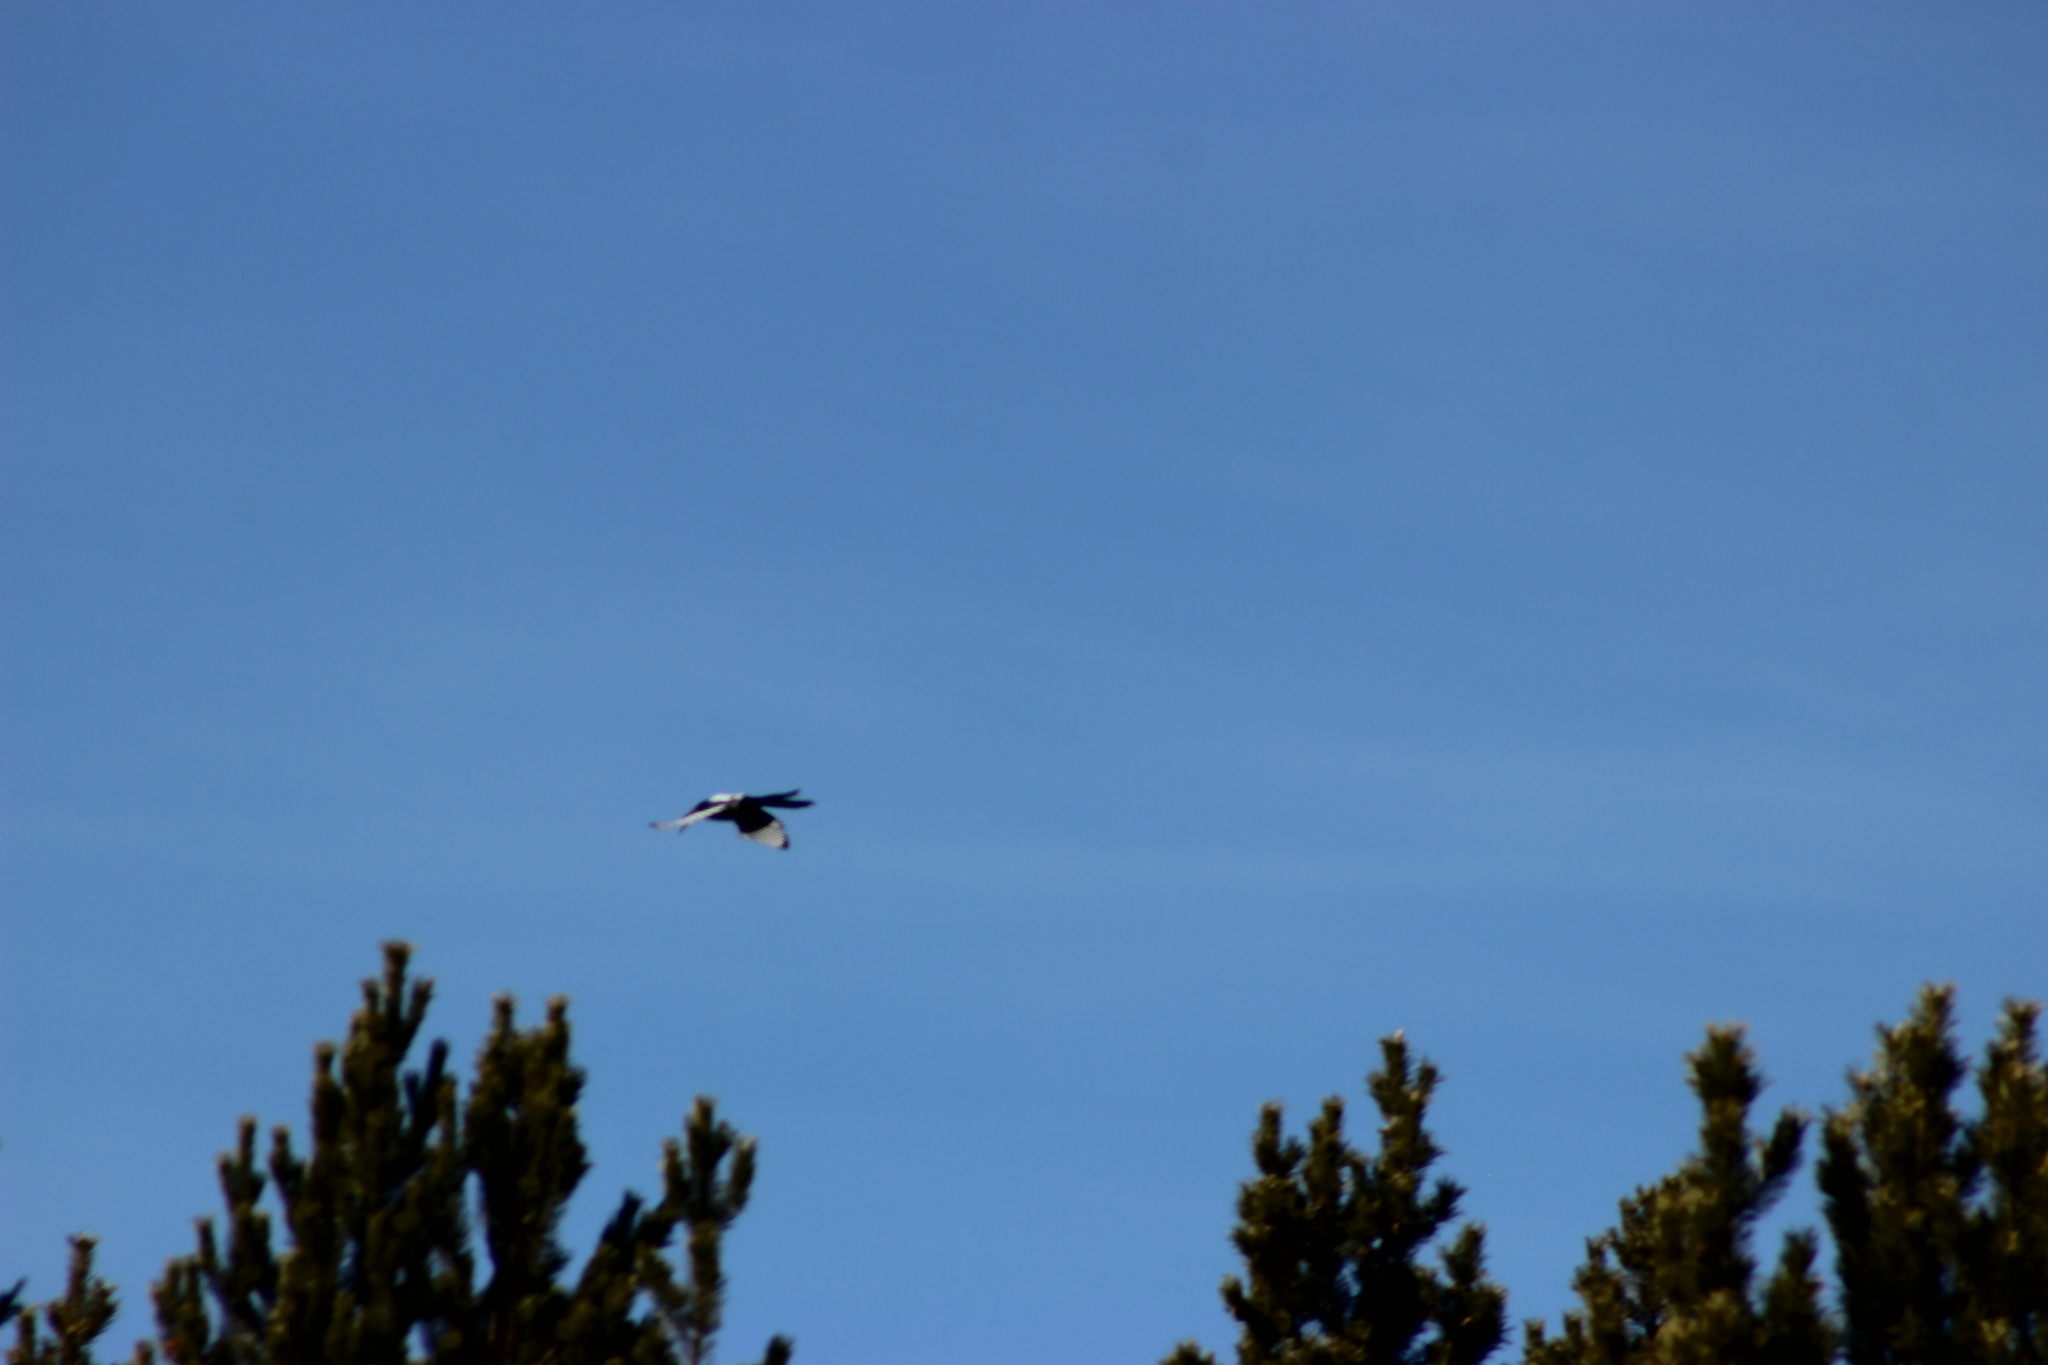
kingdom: Animalia
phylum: Chordata
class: Aves
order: Passeriformes
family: Corvidae
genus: Pica
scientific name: Pica pica
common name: Eurasian magpie
